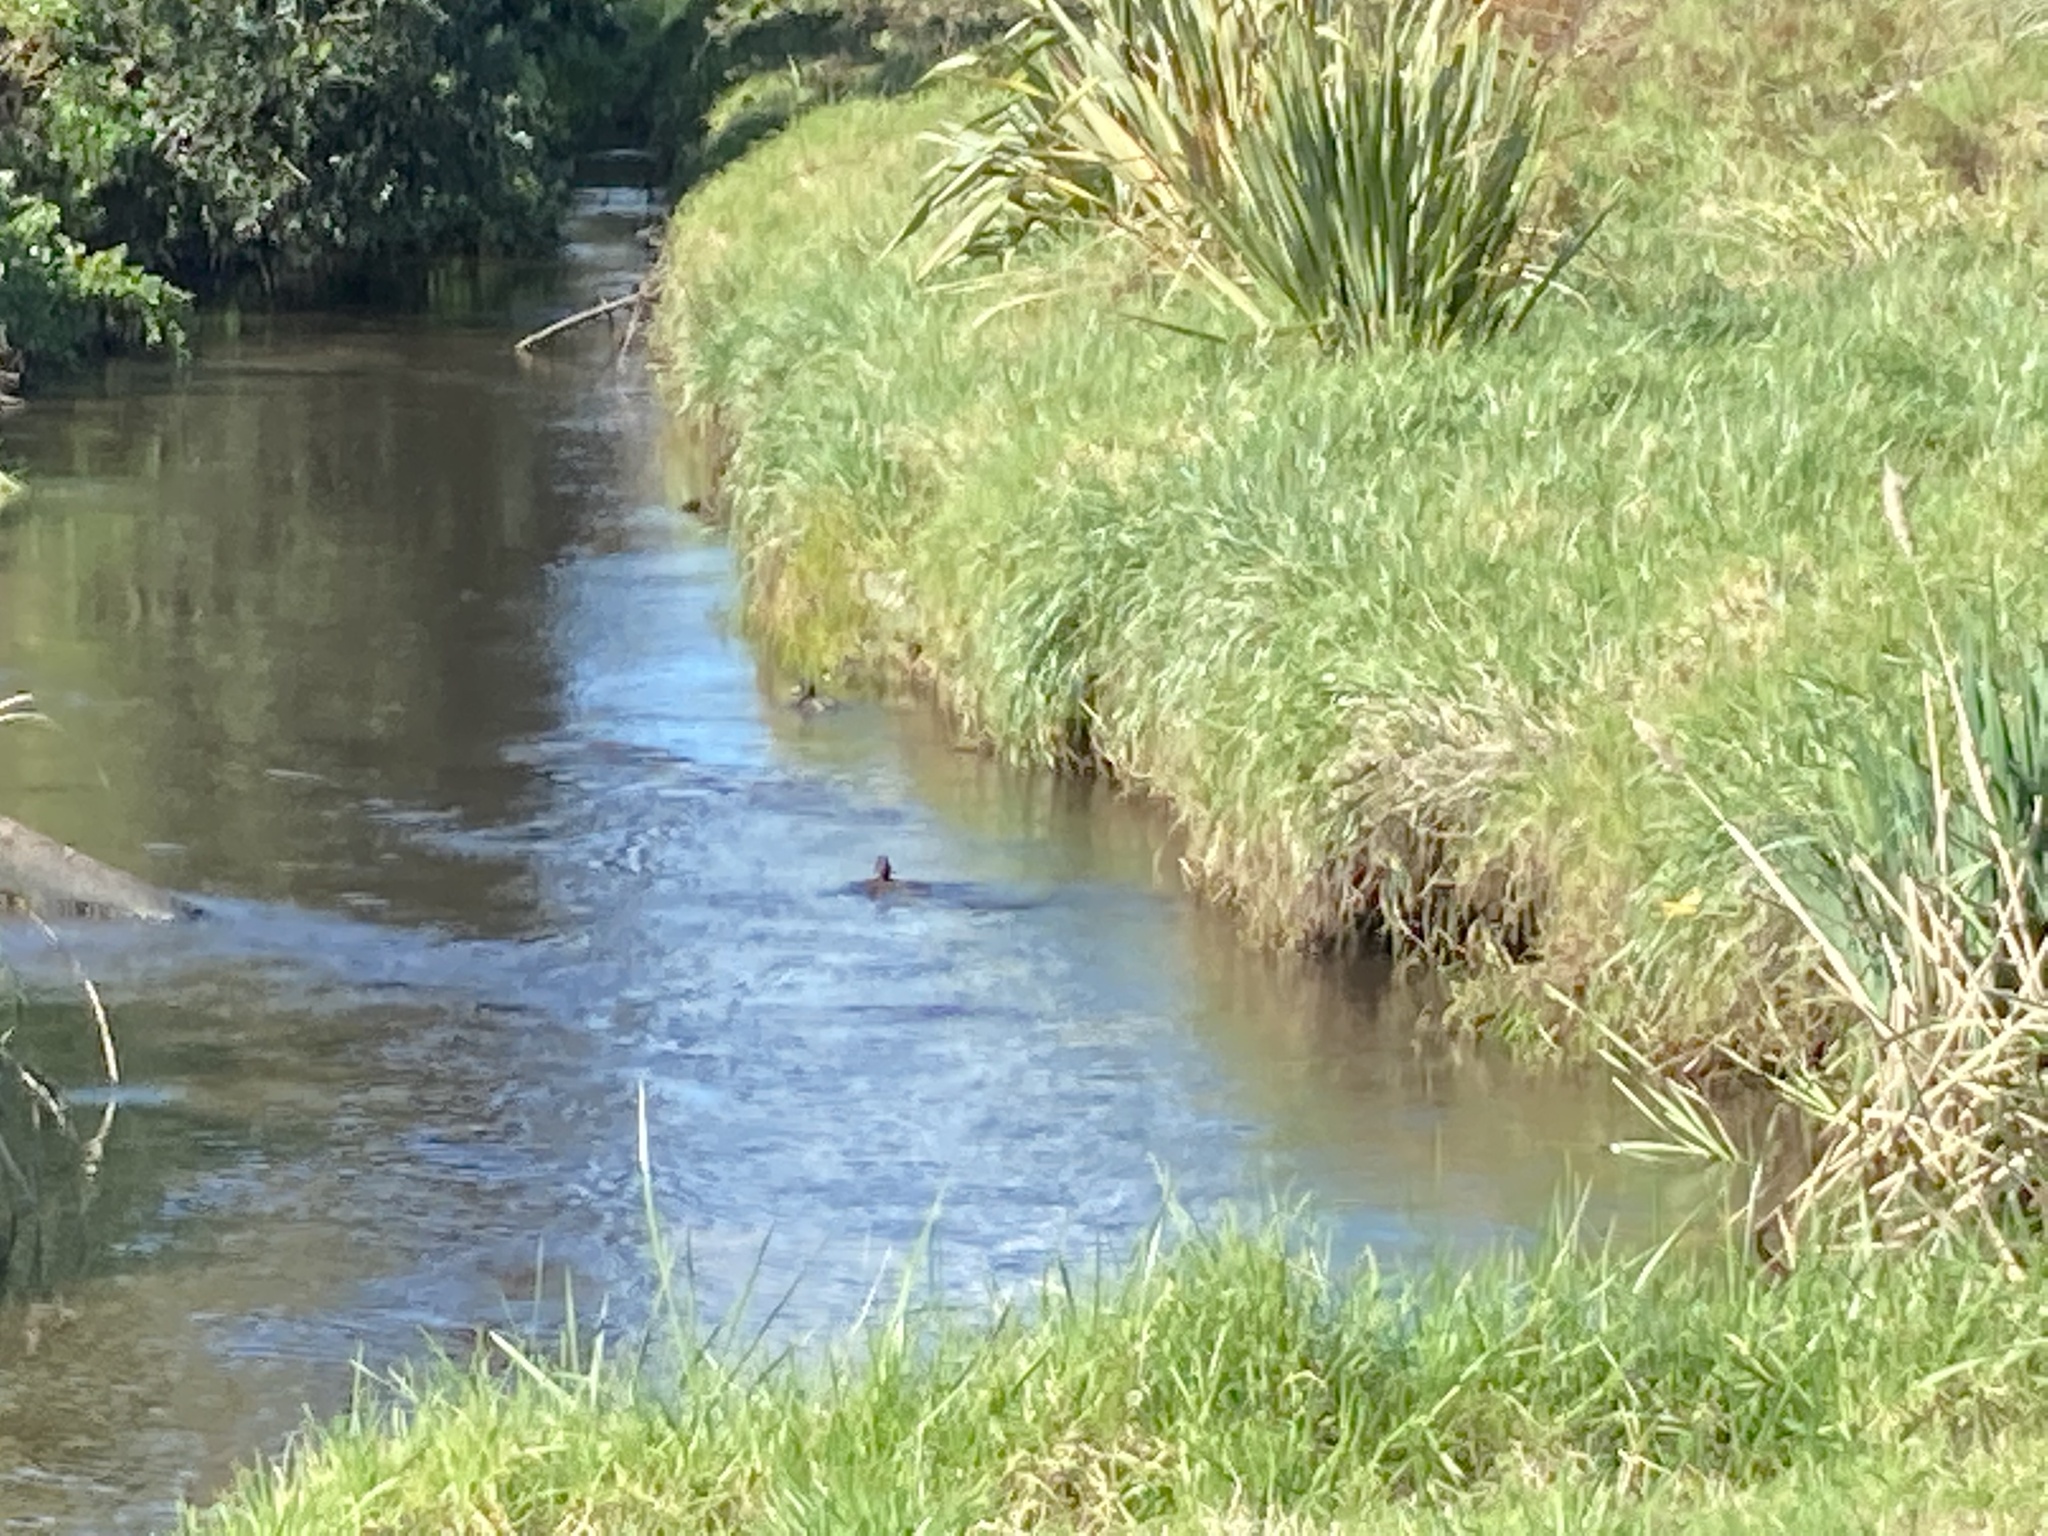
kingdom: Animalia
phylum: Chordata
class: Aves
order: Anseriformes
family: Anatidae
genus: Aythya
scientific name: Aythya novaeseelandiae
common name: New zealand scaup
